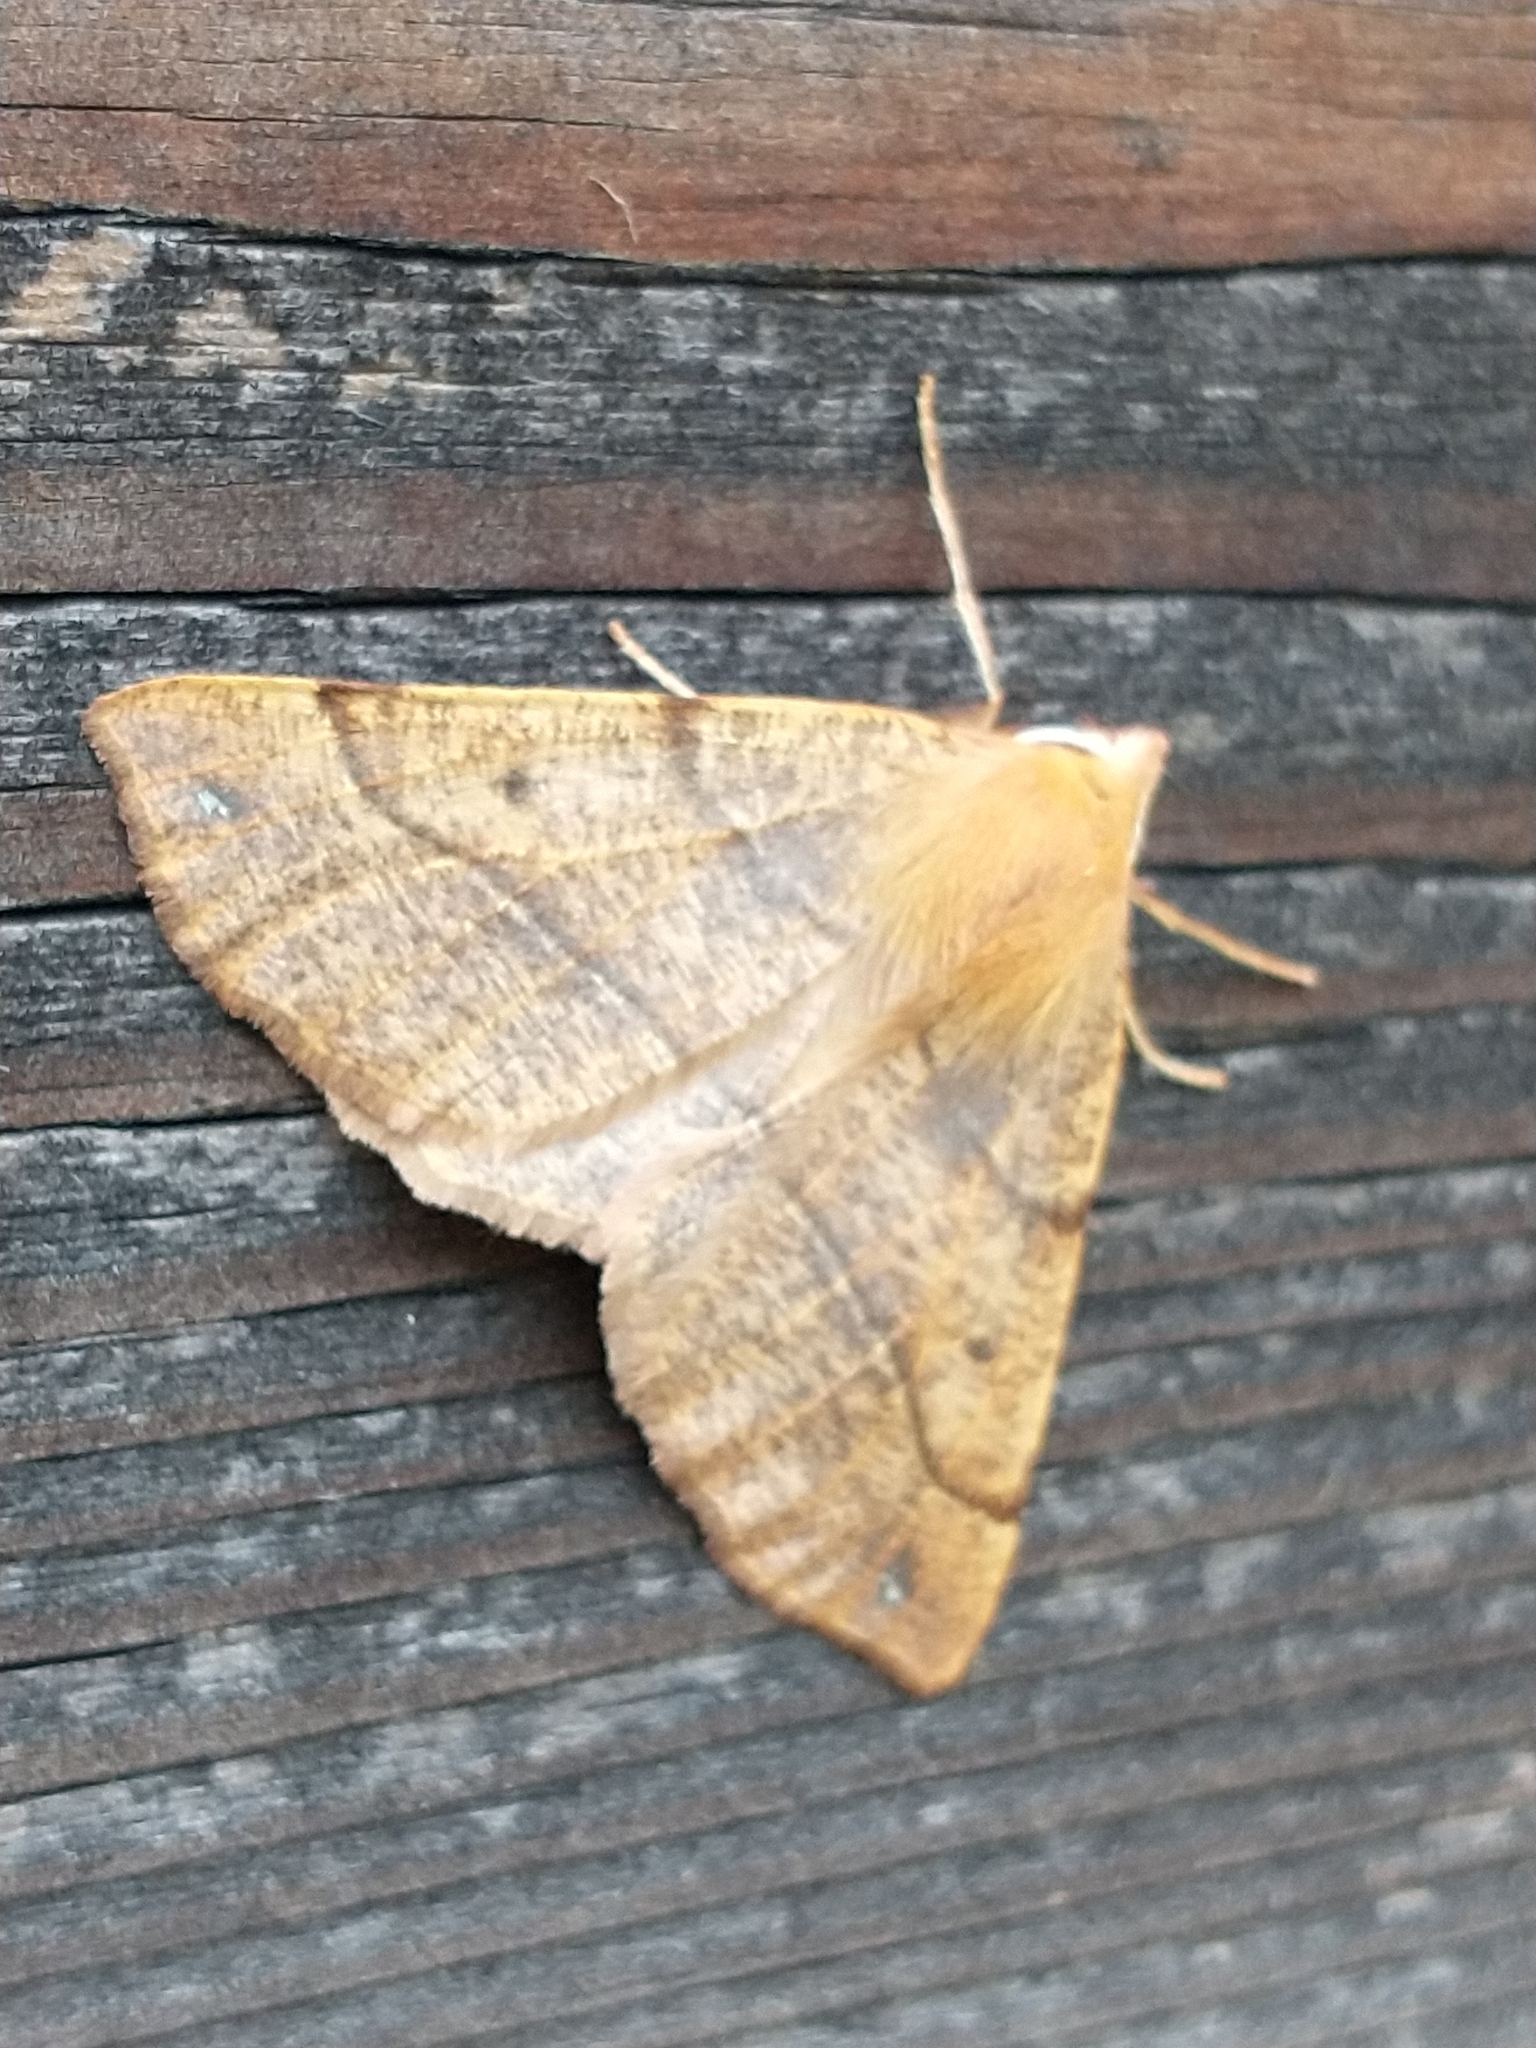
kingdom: Animalia
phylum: Arthropoda
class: Insecta
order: Lepidoptera
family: Geometridae
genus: Colotois
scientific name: Colotois pennaria
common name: Feathered thorn
